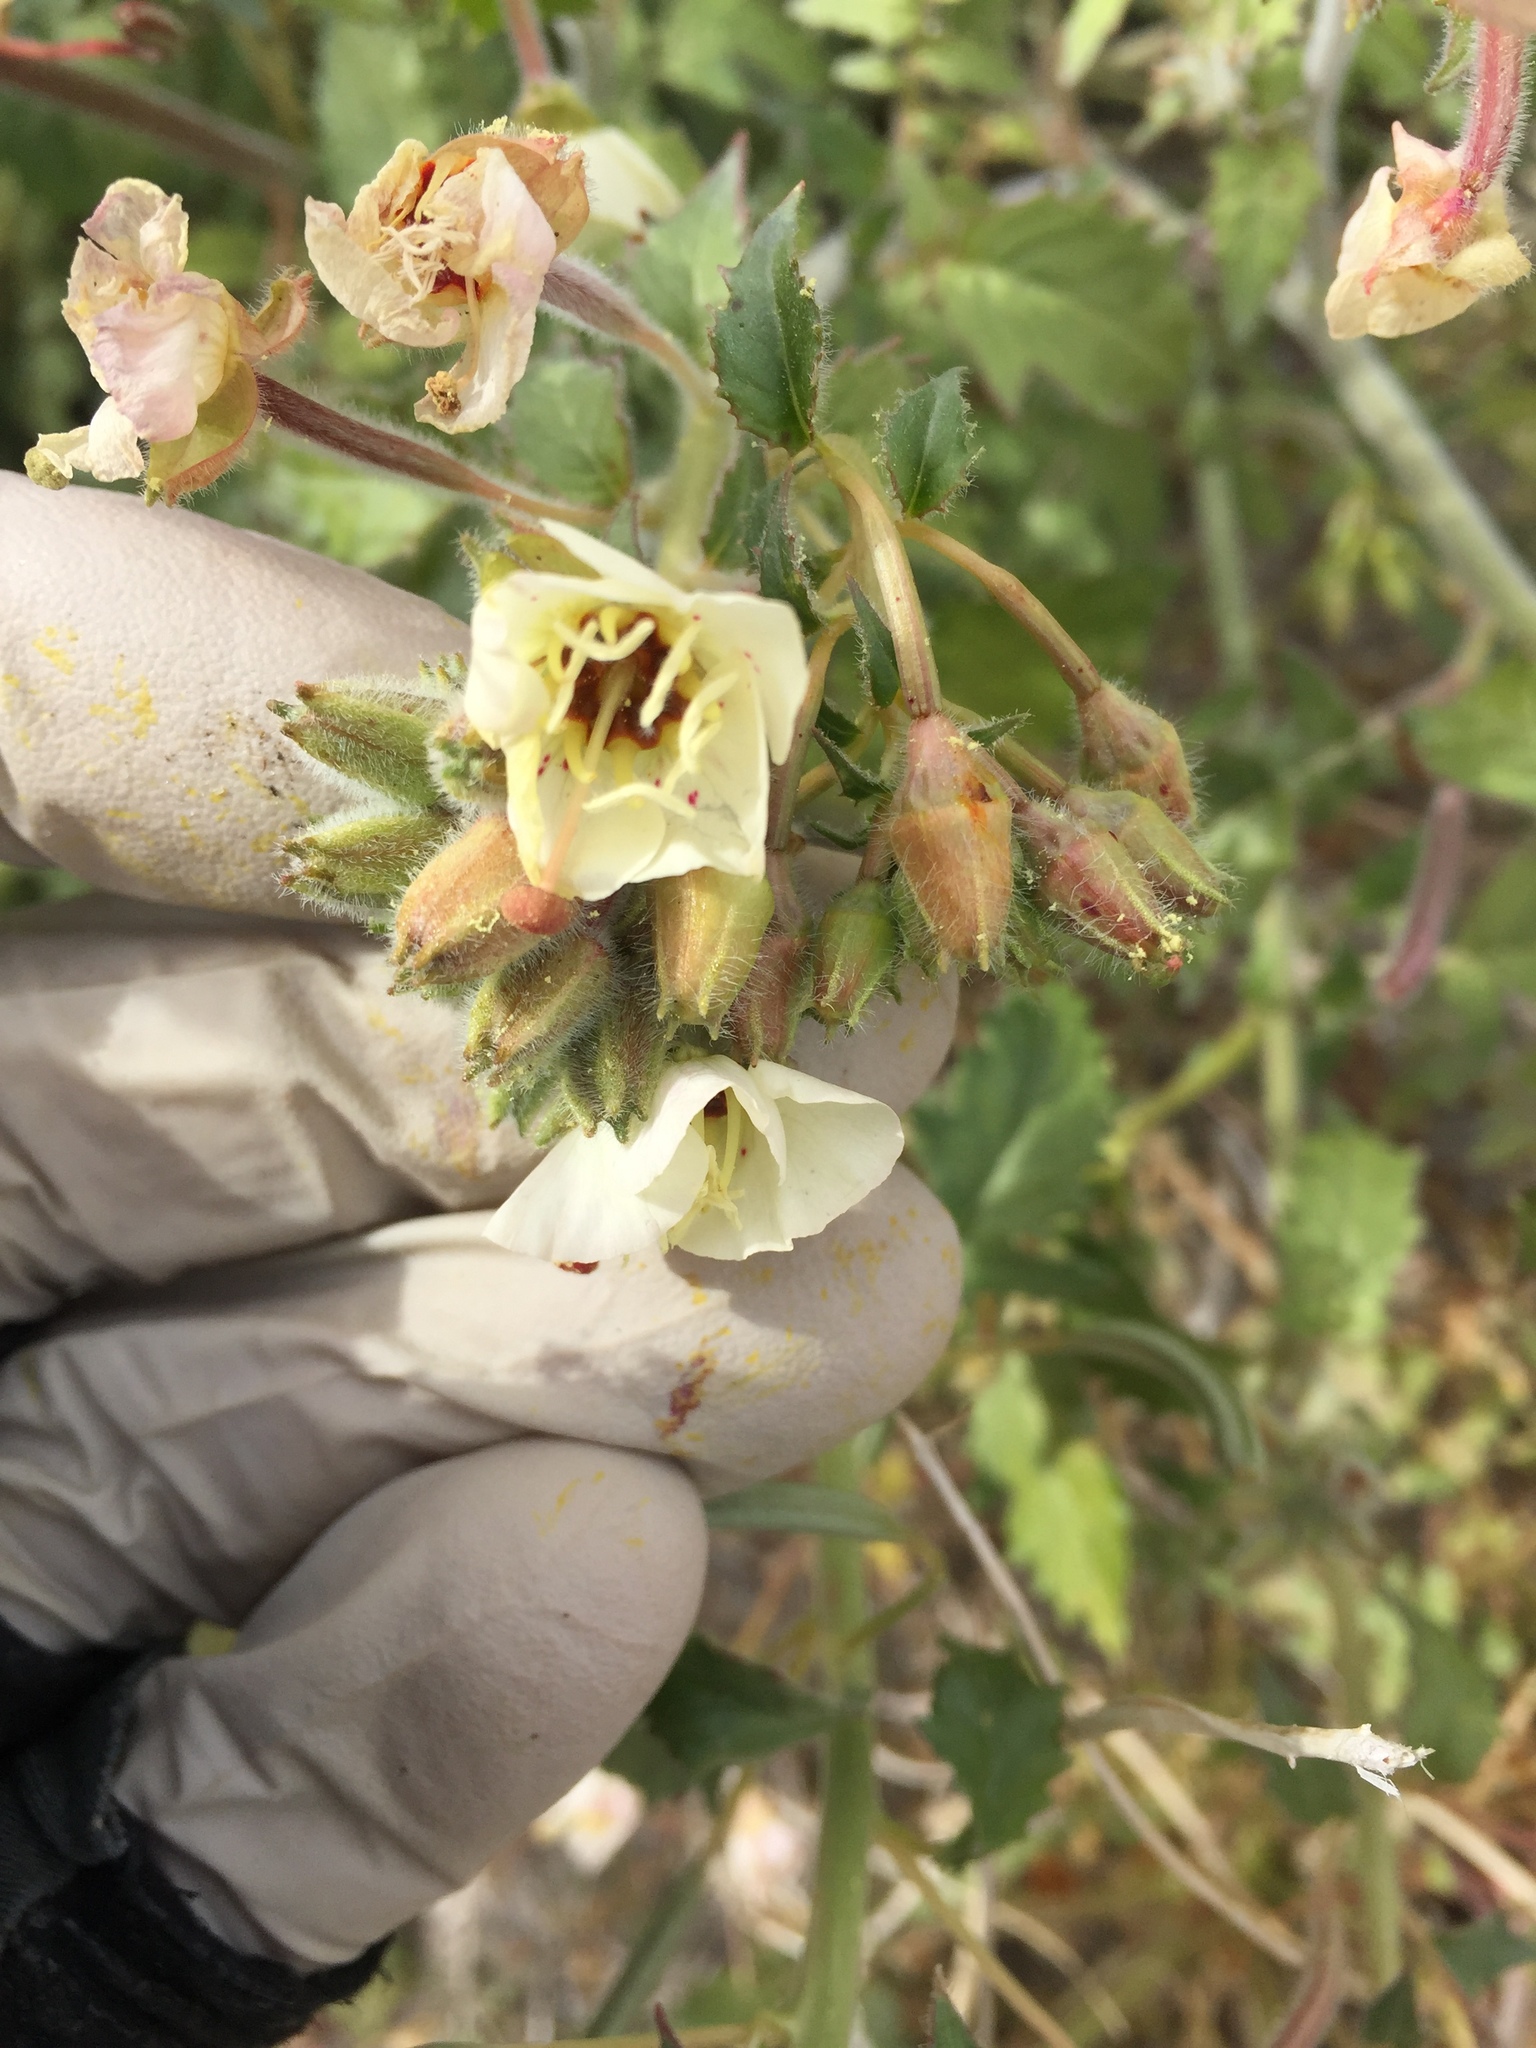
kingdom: Plantae
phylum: Tracheophyta
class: Magnoliopsida
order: Myrtales
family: Onagraceae
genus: Chylismia
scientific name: Chylismia claviformis
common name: Browneyes
